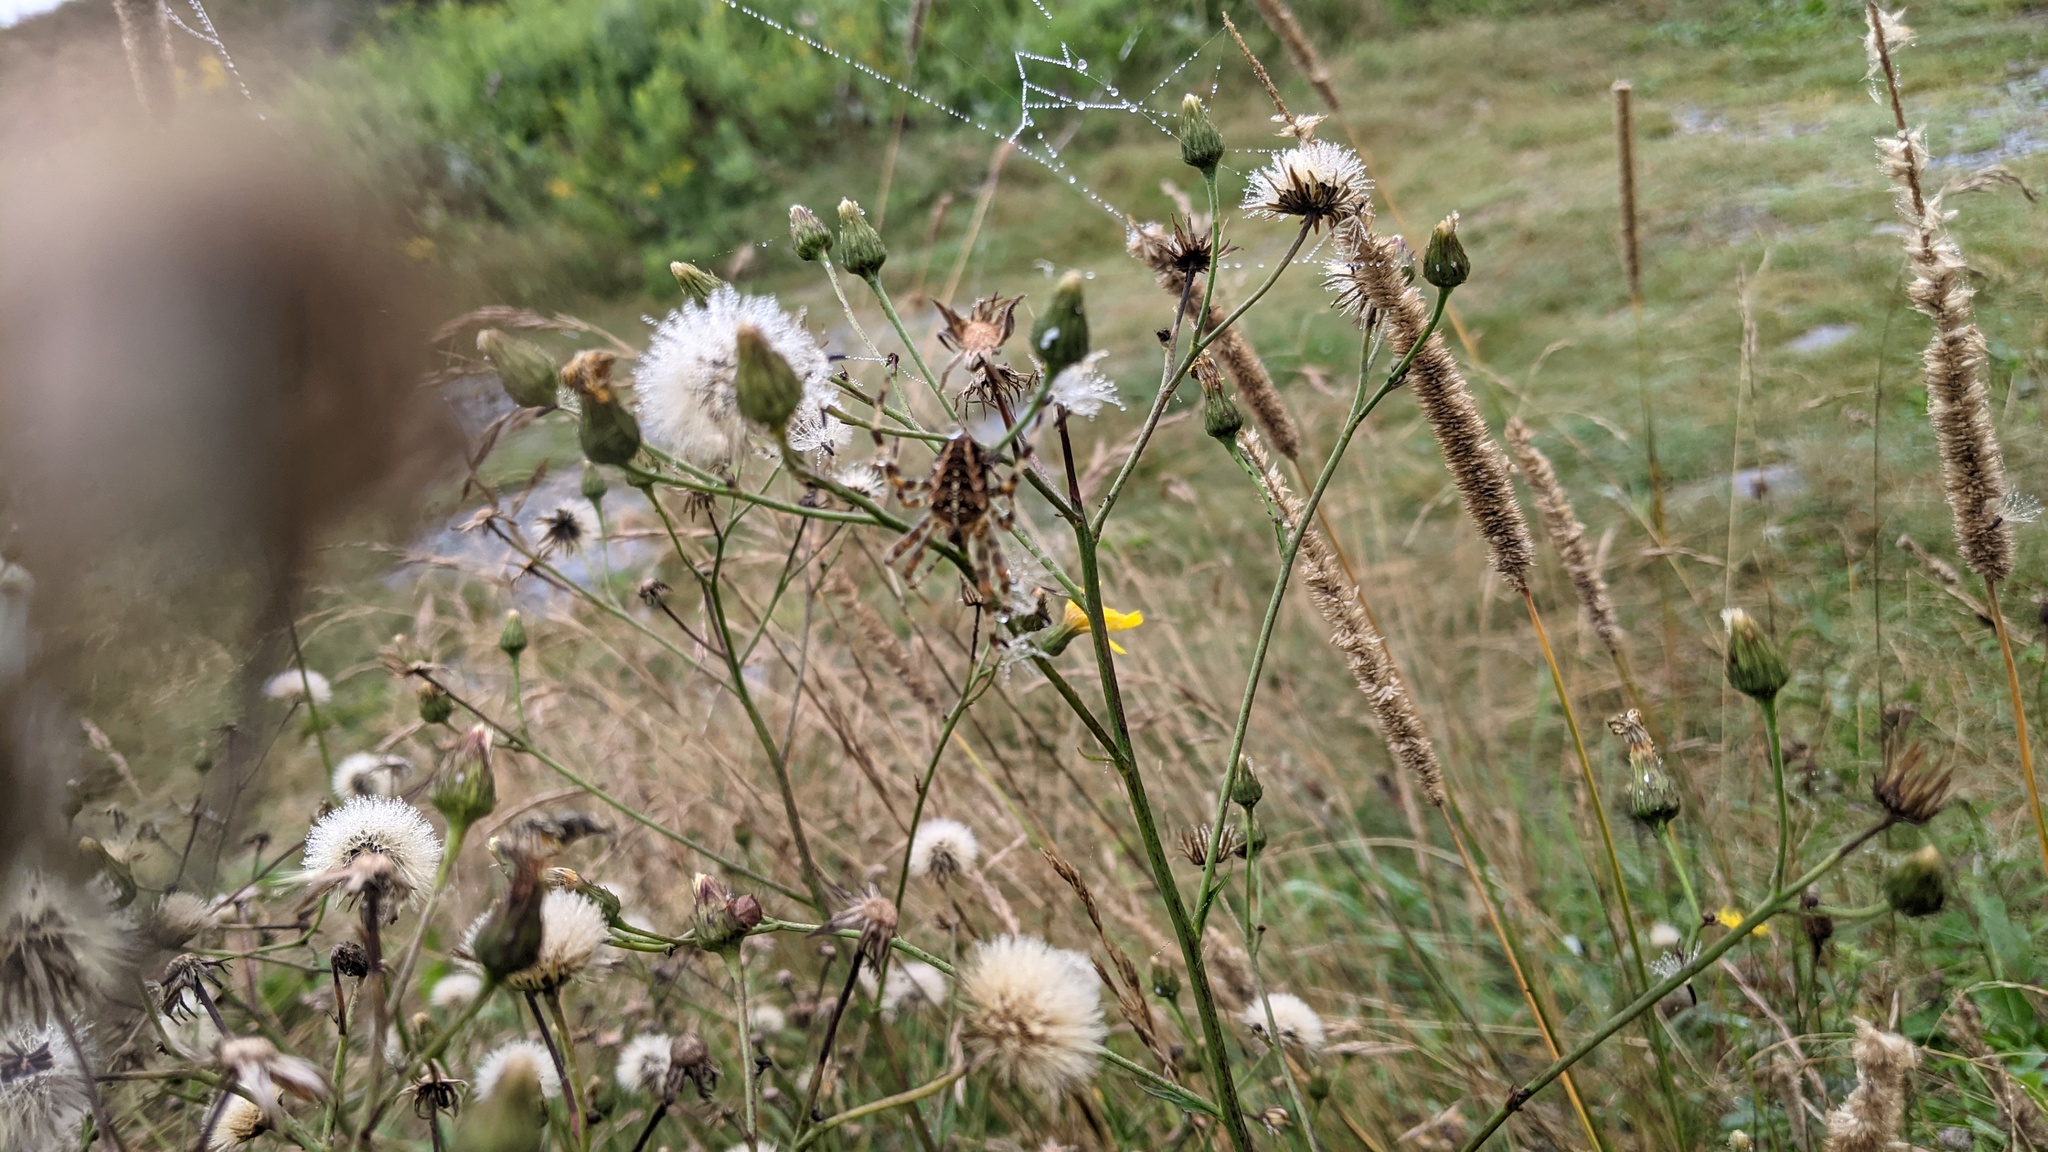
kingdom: Animalia
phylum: Arthropoda
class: Arachnida
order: Araneae
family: Araneidae
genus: Araneus
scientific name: Araneus diadematus
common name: Cross orbweaver
